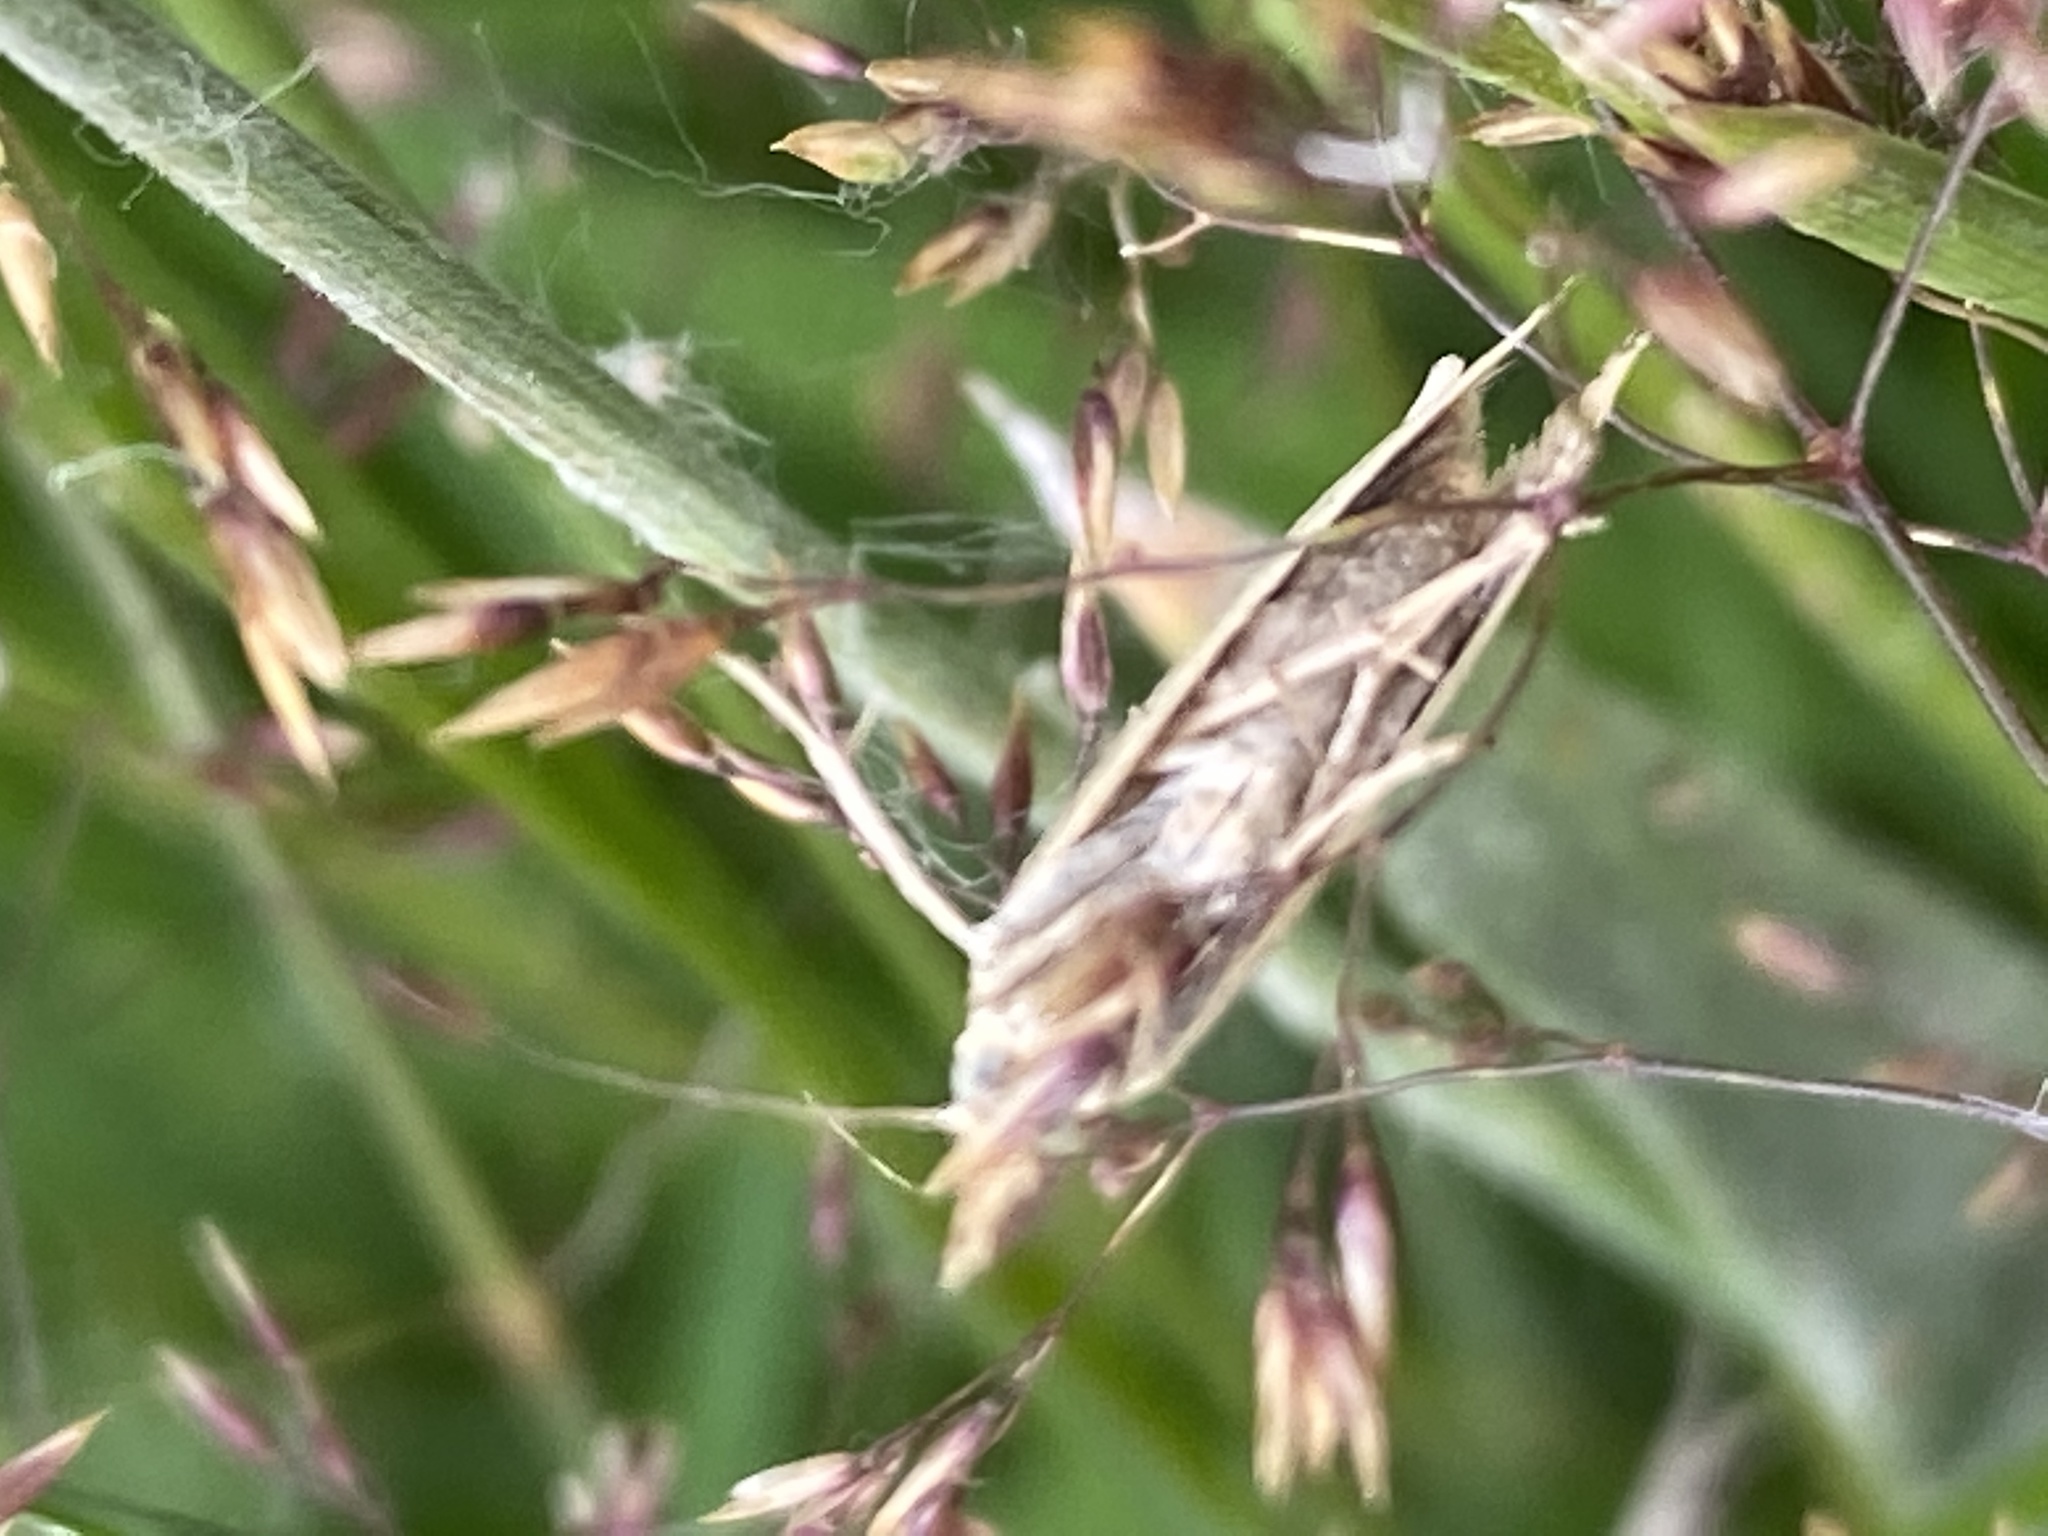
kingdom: Animalia
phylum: Arthropoda
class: Insecta
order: Lepidoptera
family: Crambidae
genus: Agriphila
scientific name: Agriphila straminella
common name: Straw grass-veneer
